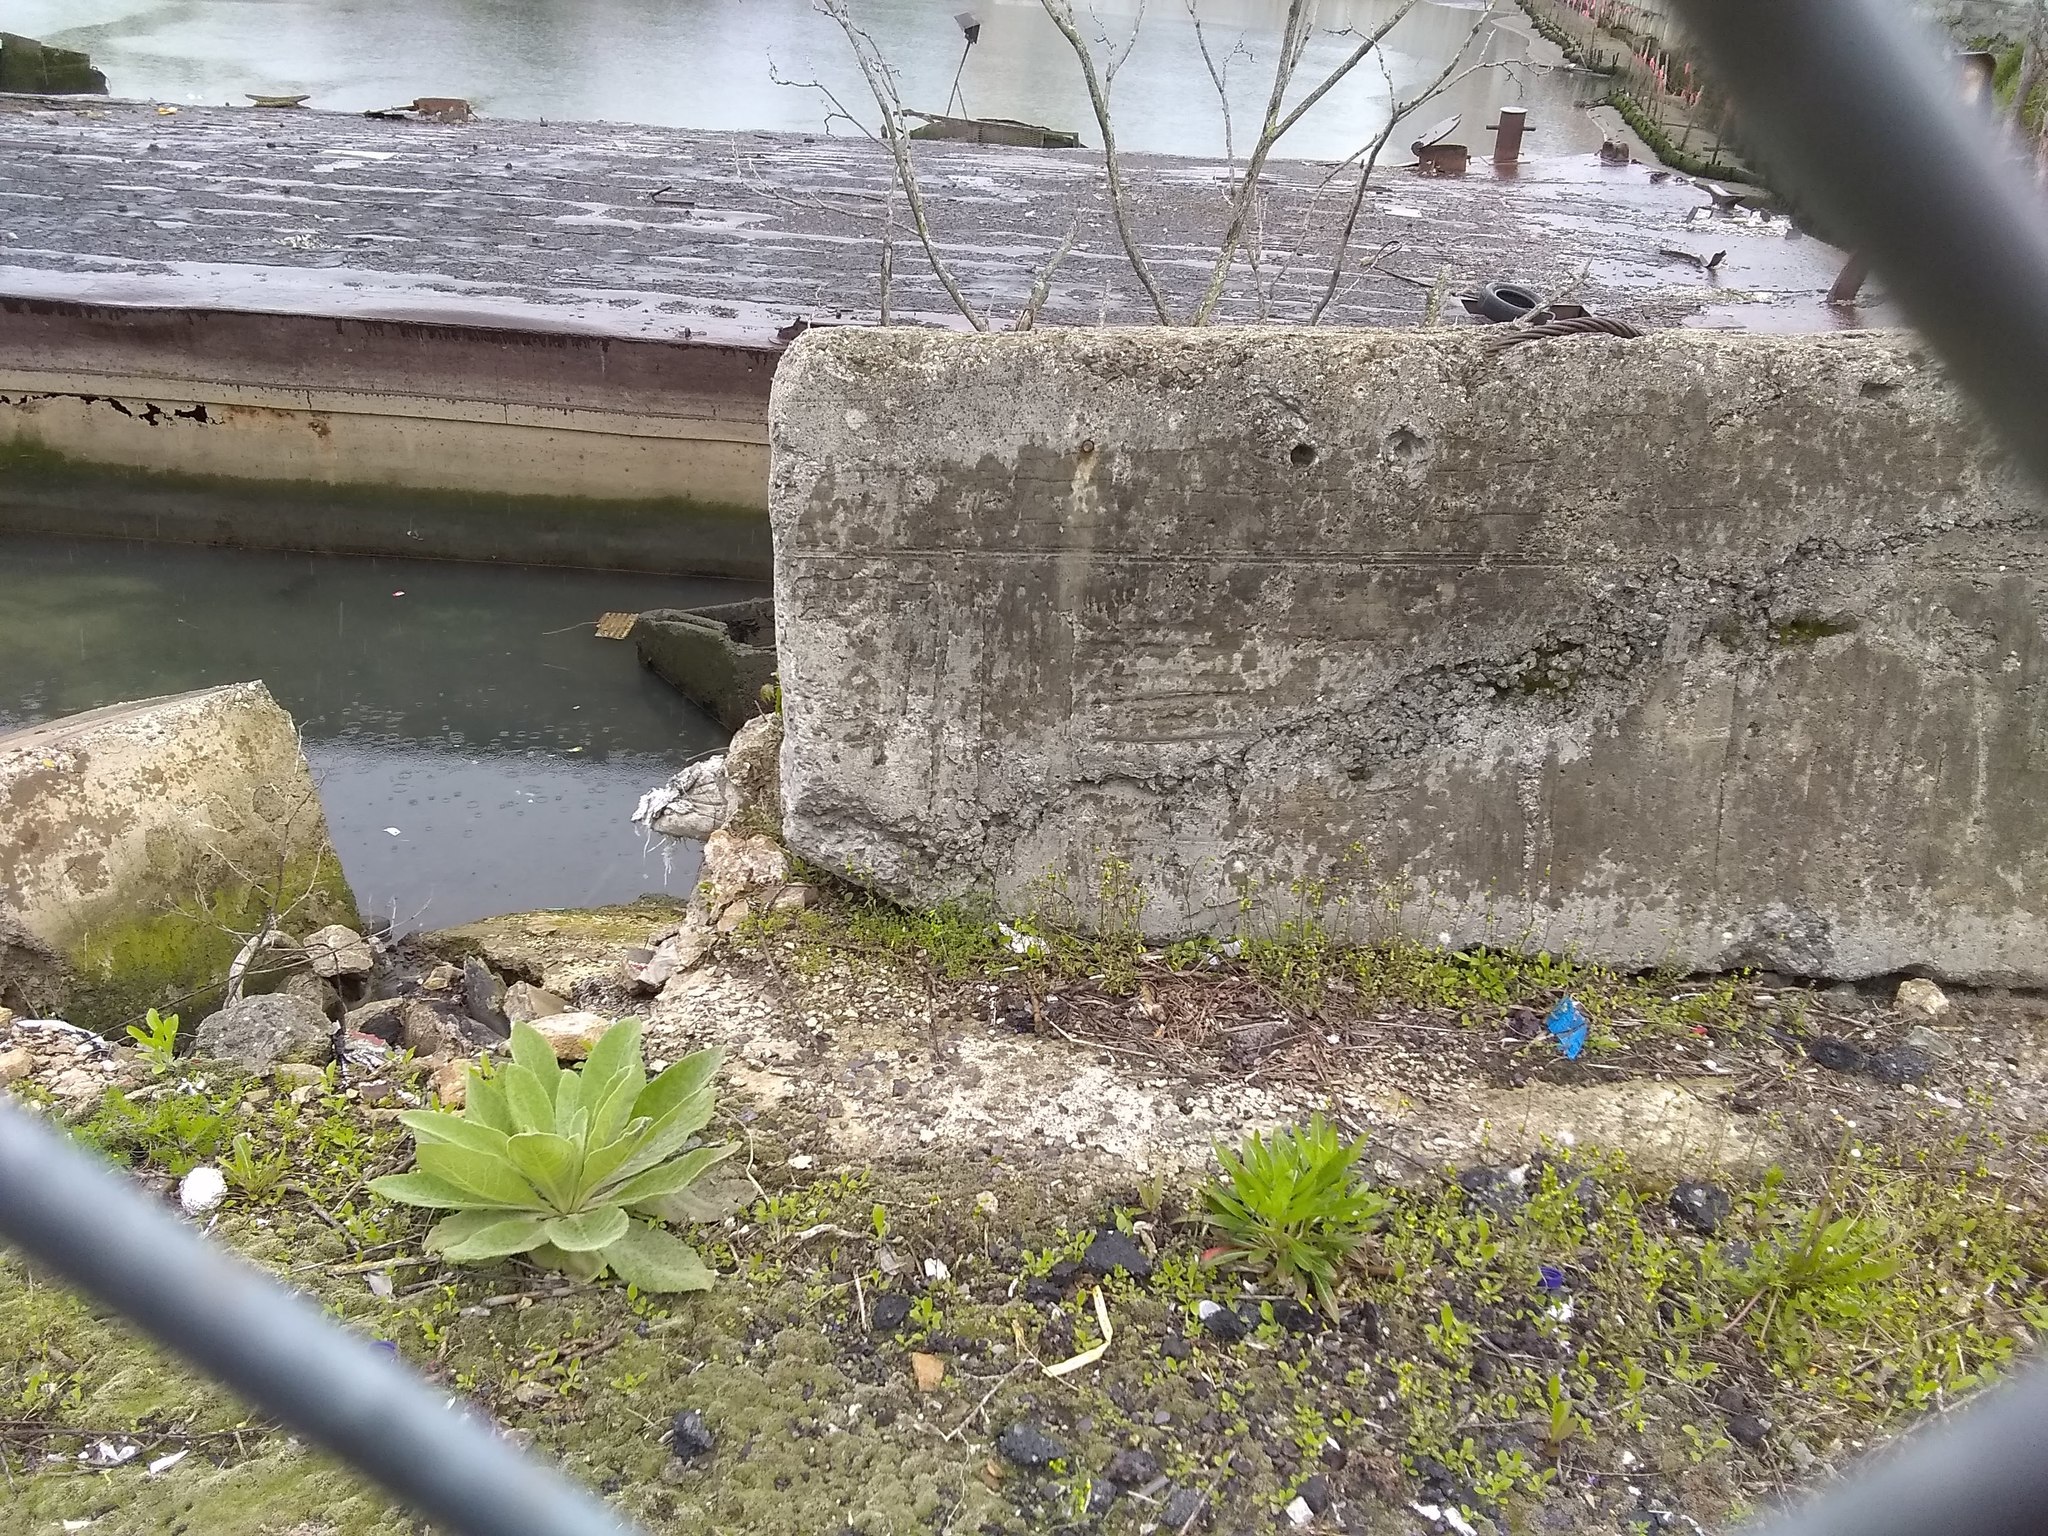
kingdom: Plantae
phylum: Tracheophyta
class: Magnoliopsida
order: Lamiales
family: Scrophulariaceae
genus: Verbascum
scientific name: Verbascum thapsus
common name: Common mullein
